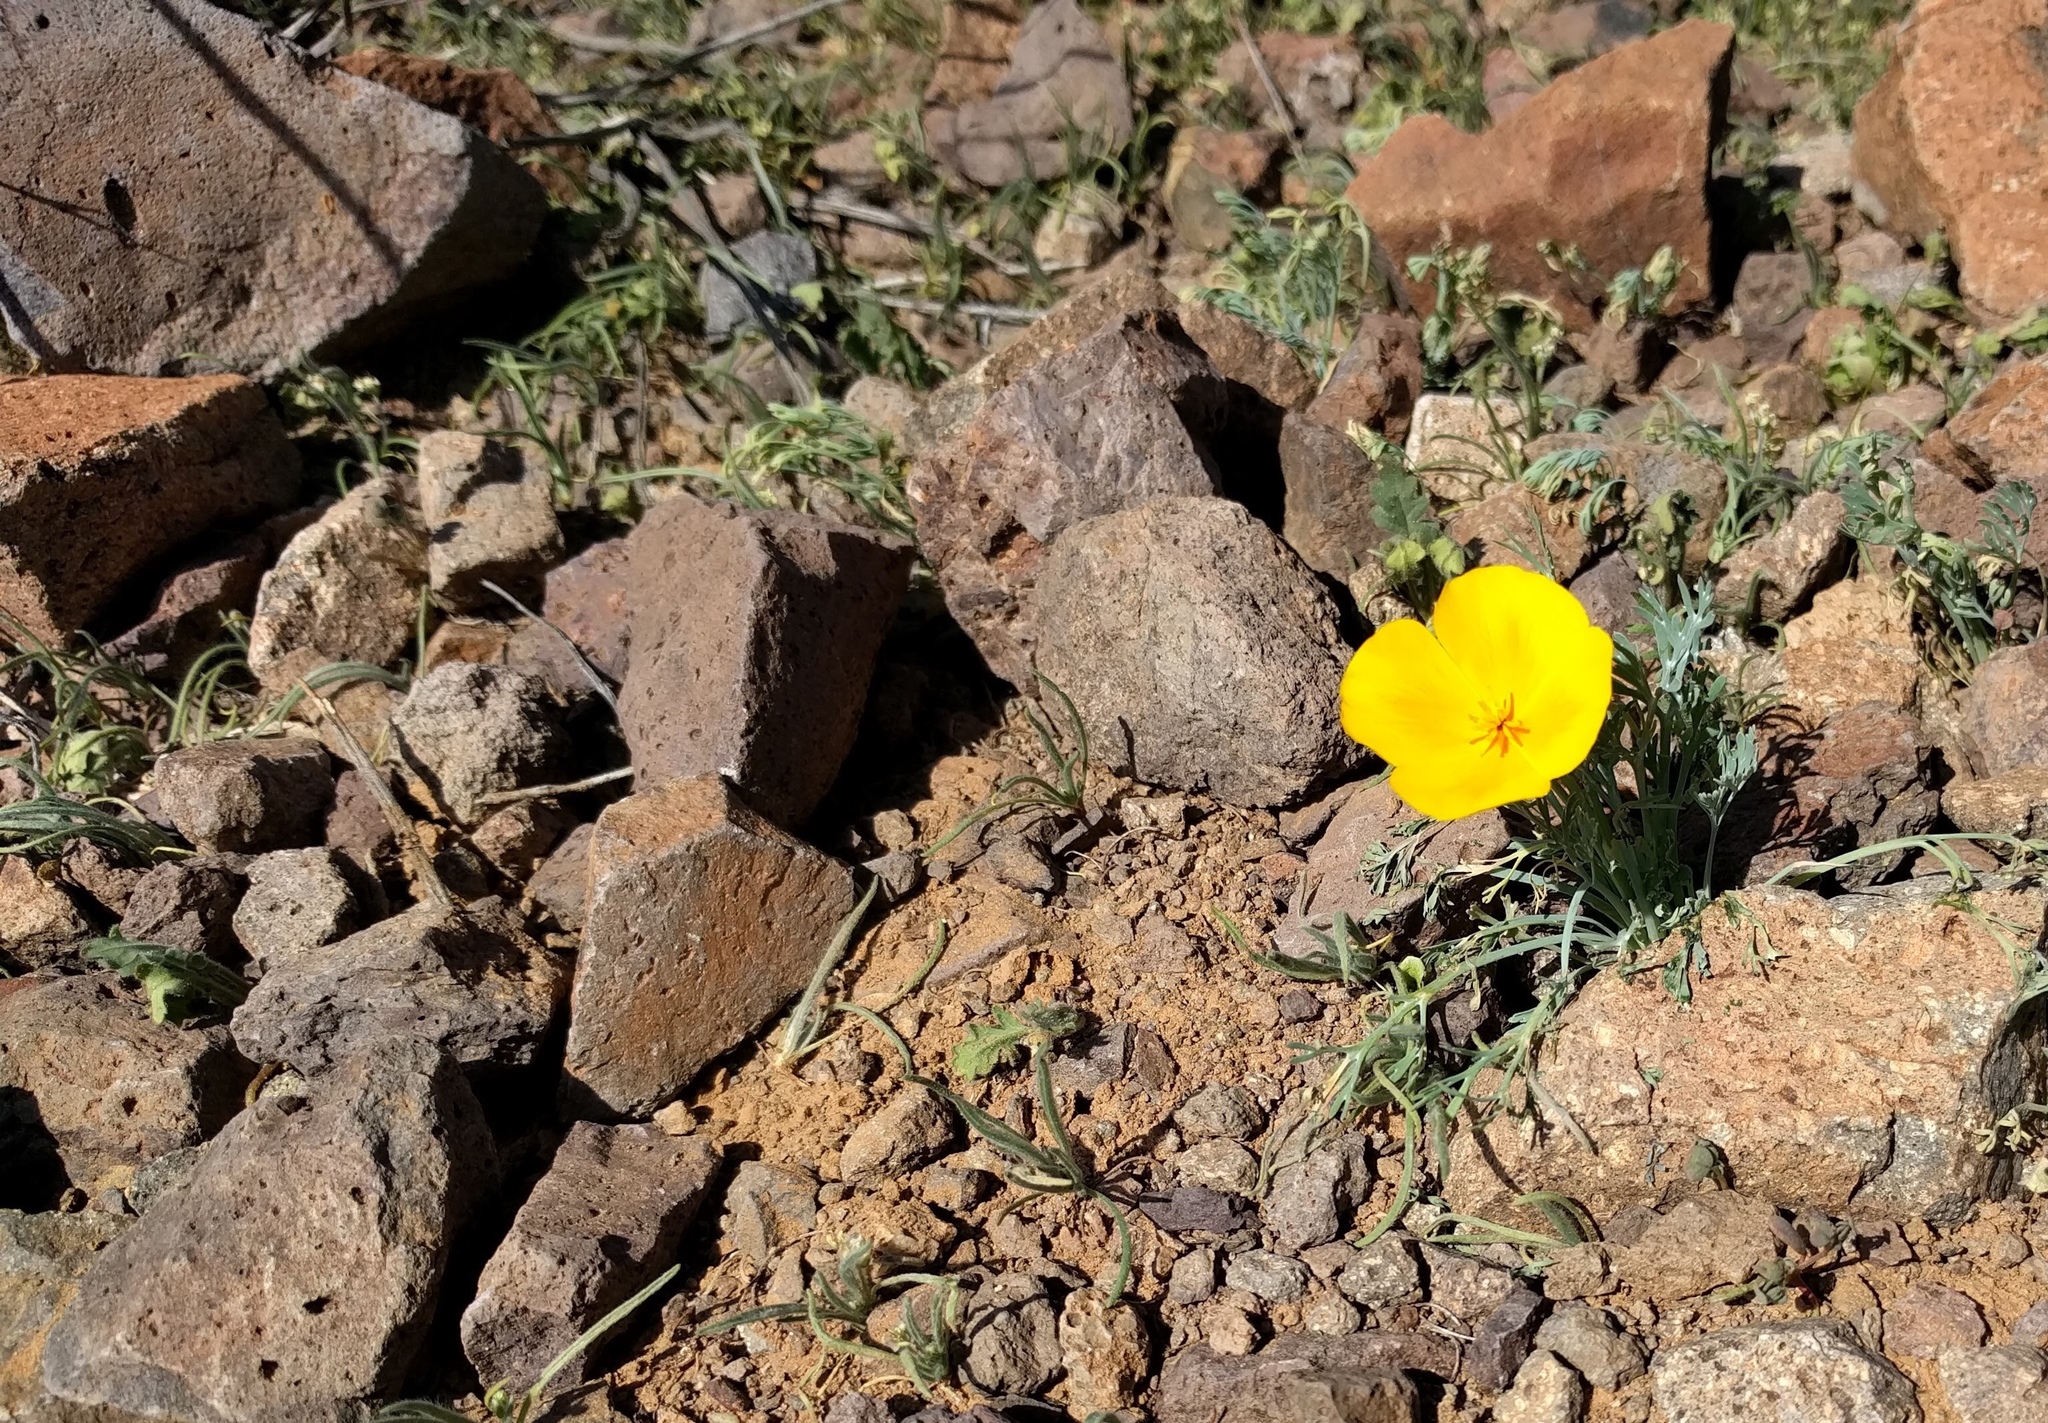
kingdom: Plantae
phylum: Tracheophyta
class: Magnoliopsida
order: Ranunculales
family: Papaveraceae
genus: Eschscholzia
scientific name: Eschscholzia californica
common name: California poppy
